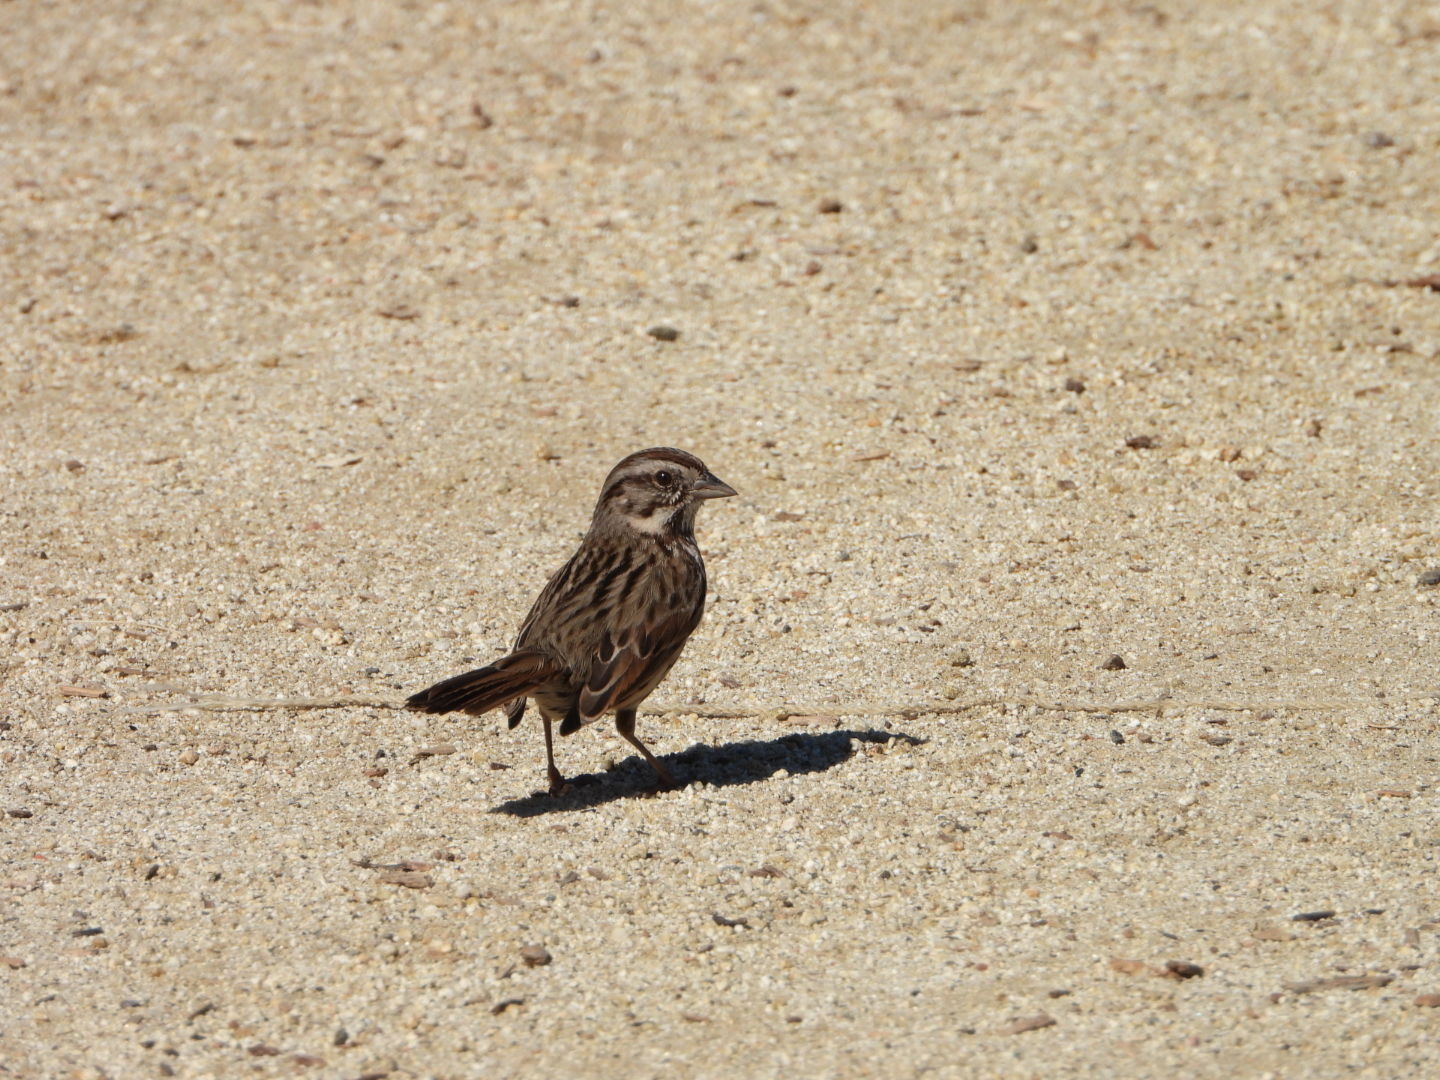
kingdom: Animalia
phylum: Chordata
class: Aves
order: Passeriformes
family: Passerellidae
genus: Melospiza
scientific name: Melospiza melodia
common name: Song sparrow
